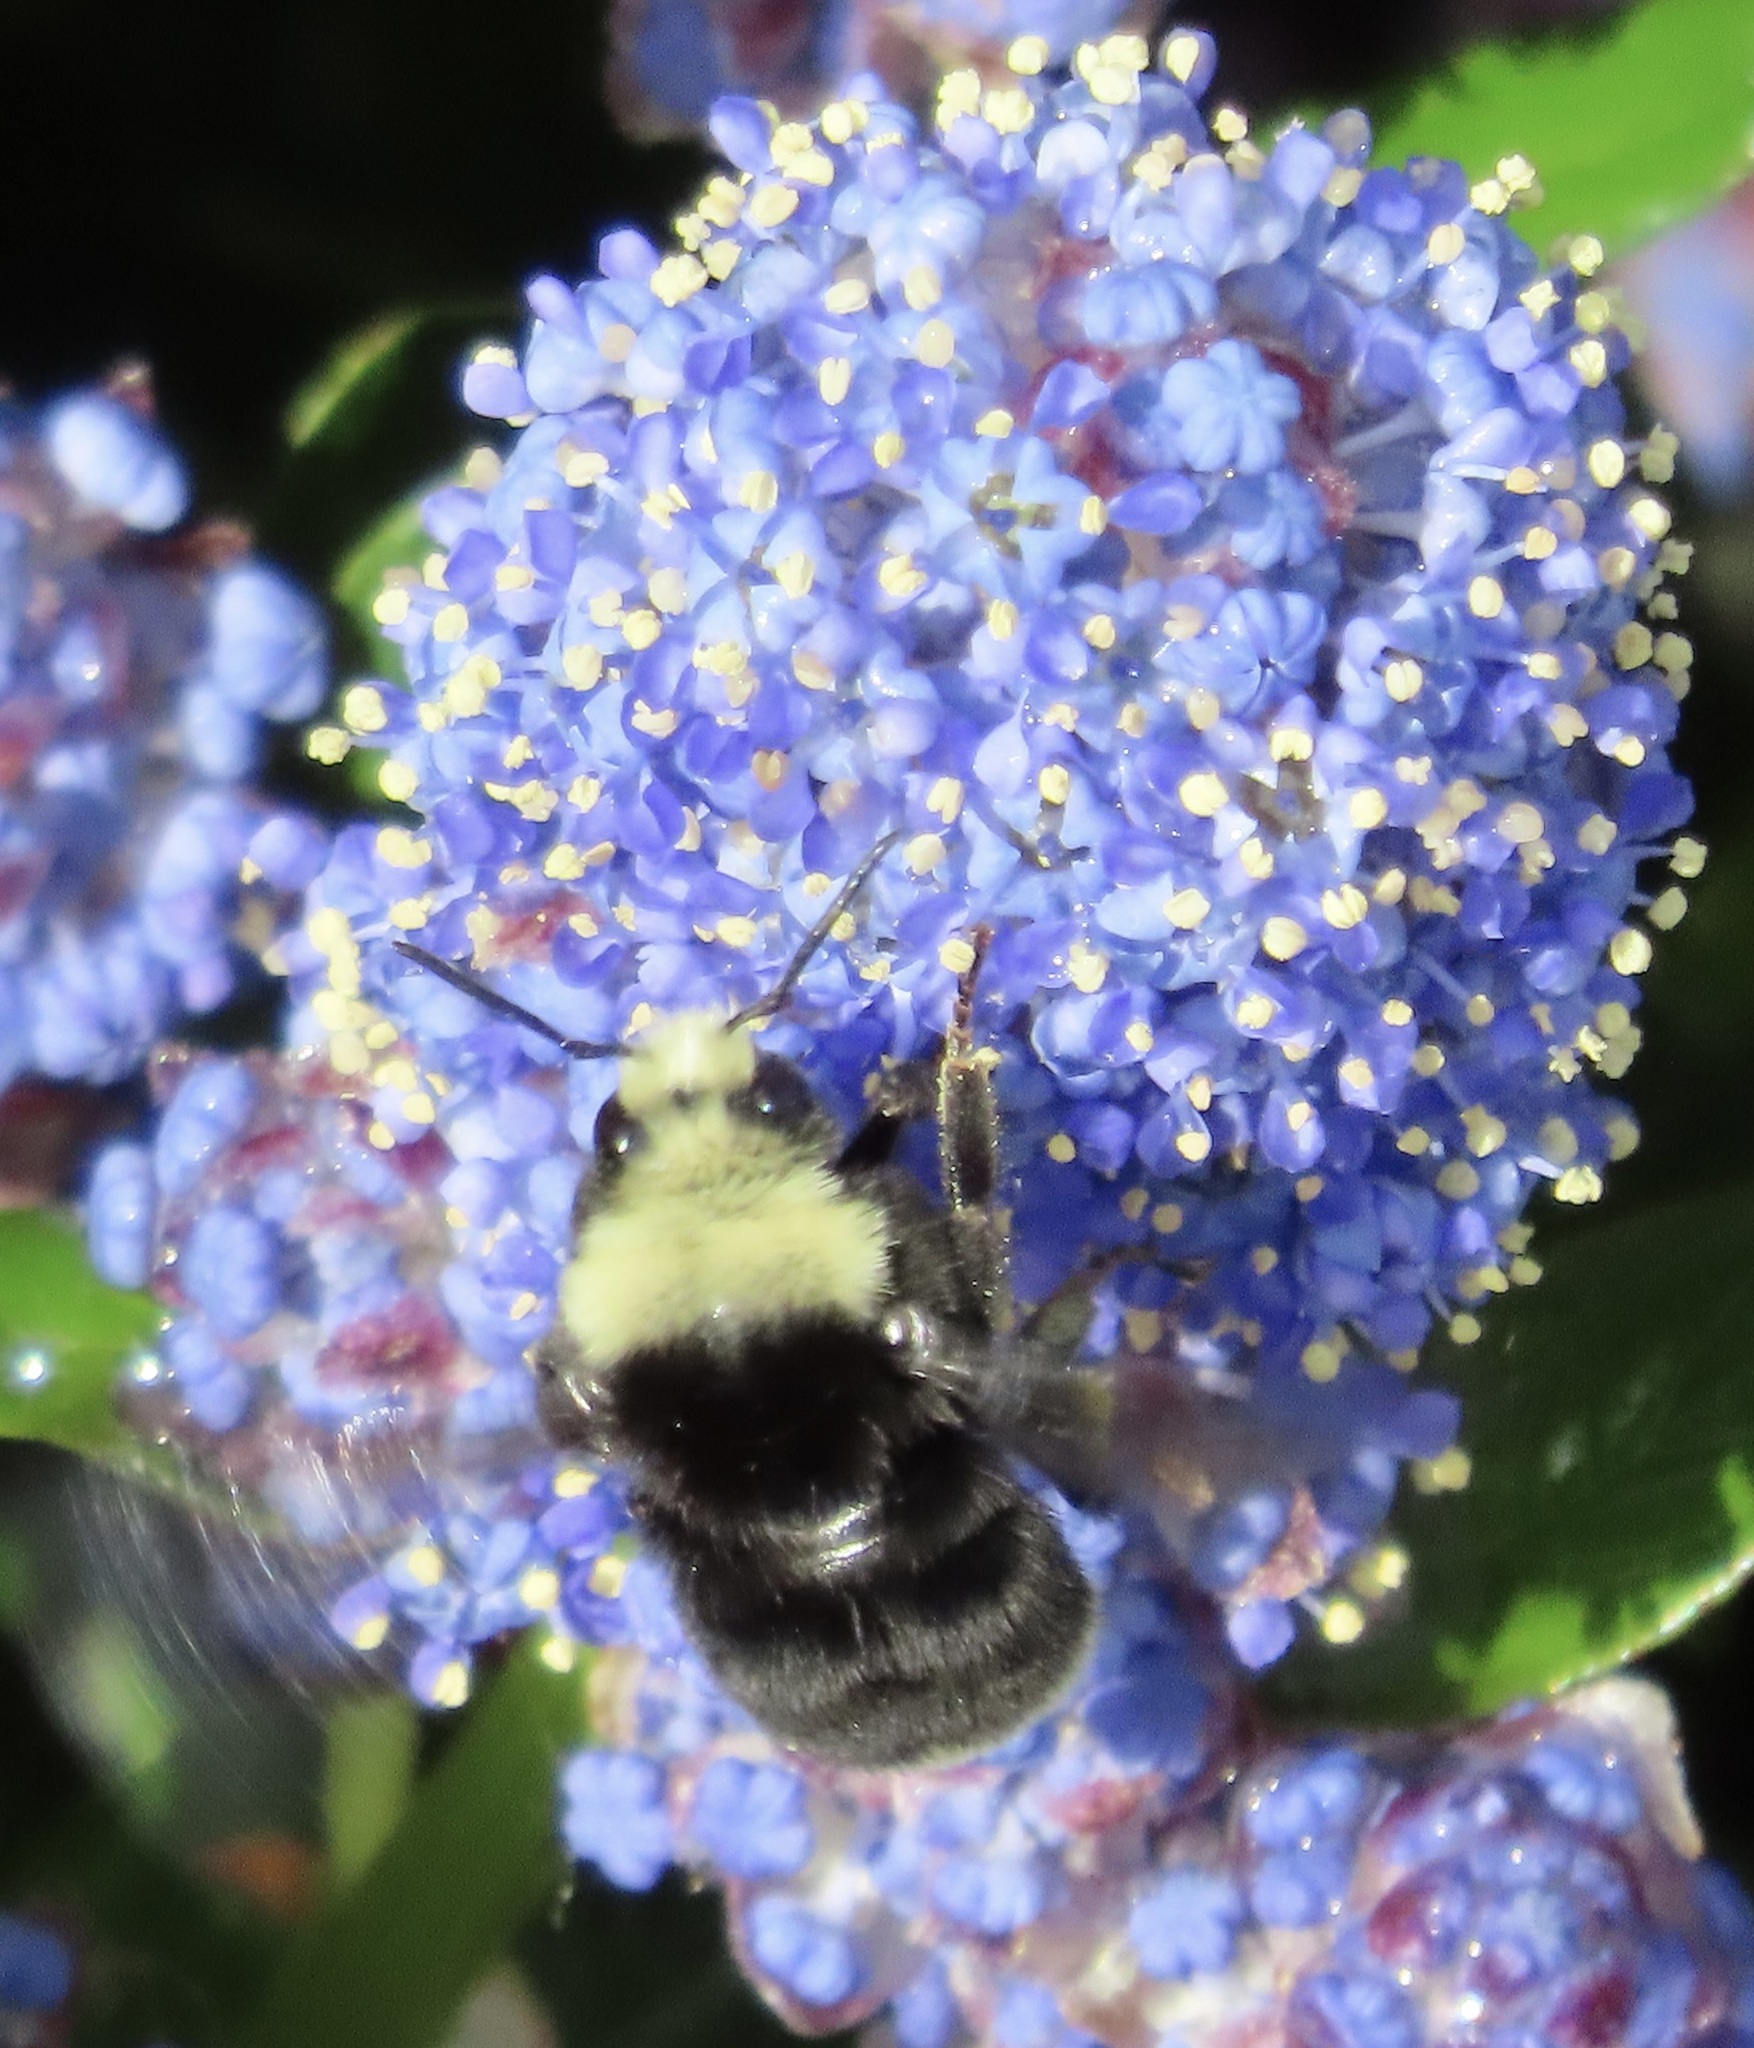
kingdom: Animalia
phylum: Arthropoda
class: Insecta
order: Hymenoptera
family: Apidae
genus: Bombus
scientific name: Bombus vosnesenskii
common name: Vosnesensky bumble bee
